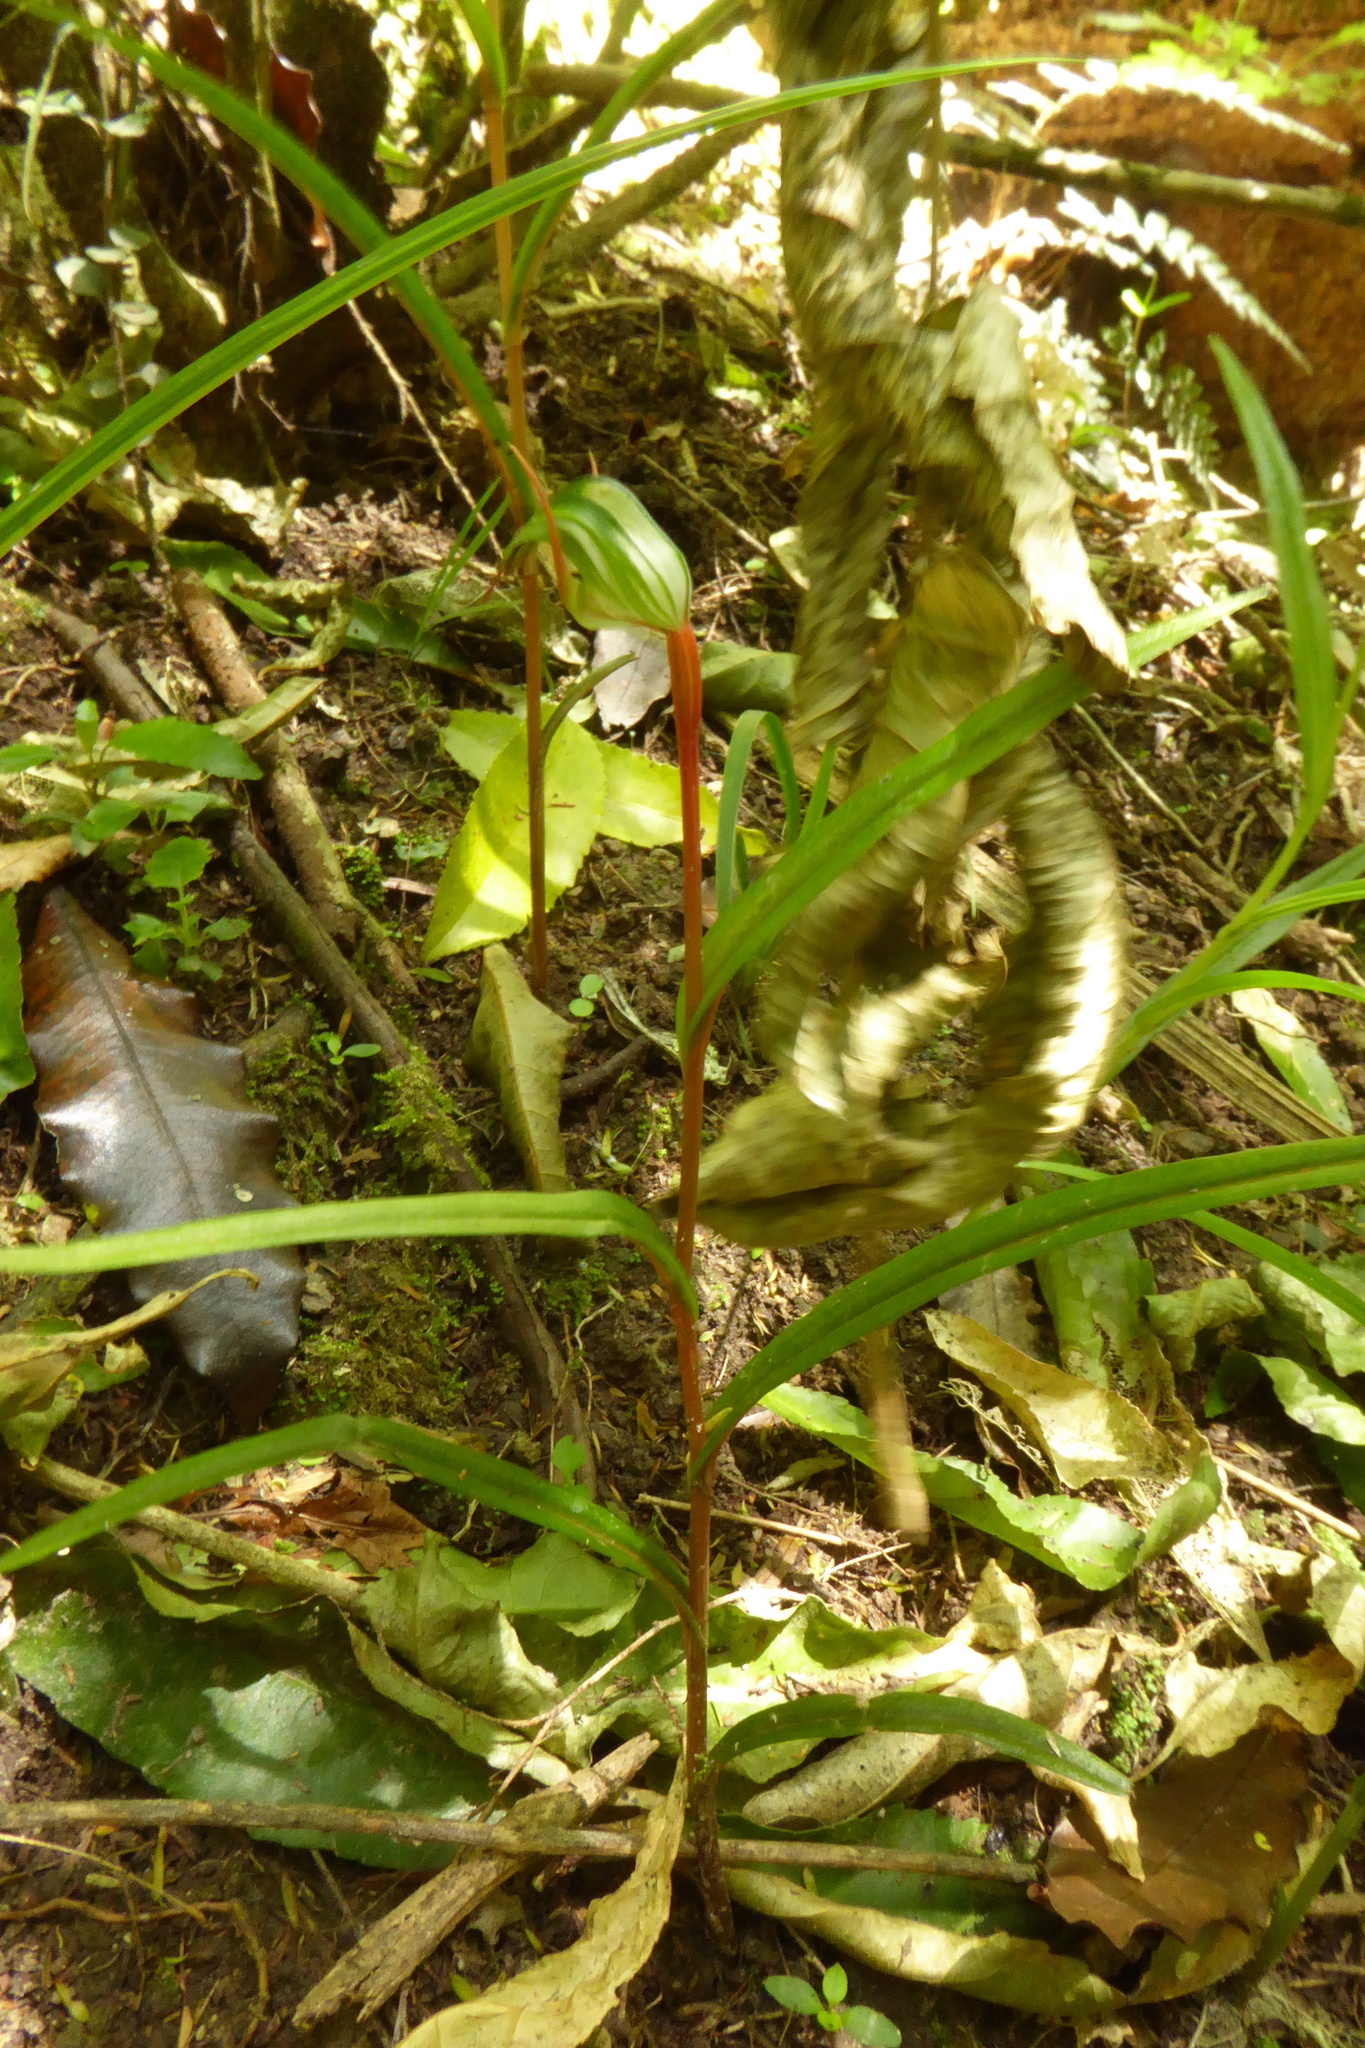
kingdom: Plantae
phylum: Tracheophyta
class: Liliopsida
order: Asparagales
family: Orchidaceae
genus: Pterostylis
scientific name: Pterostylis graminea
